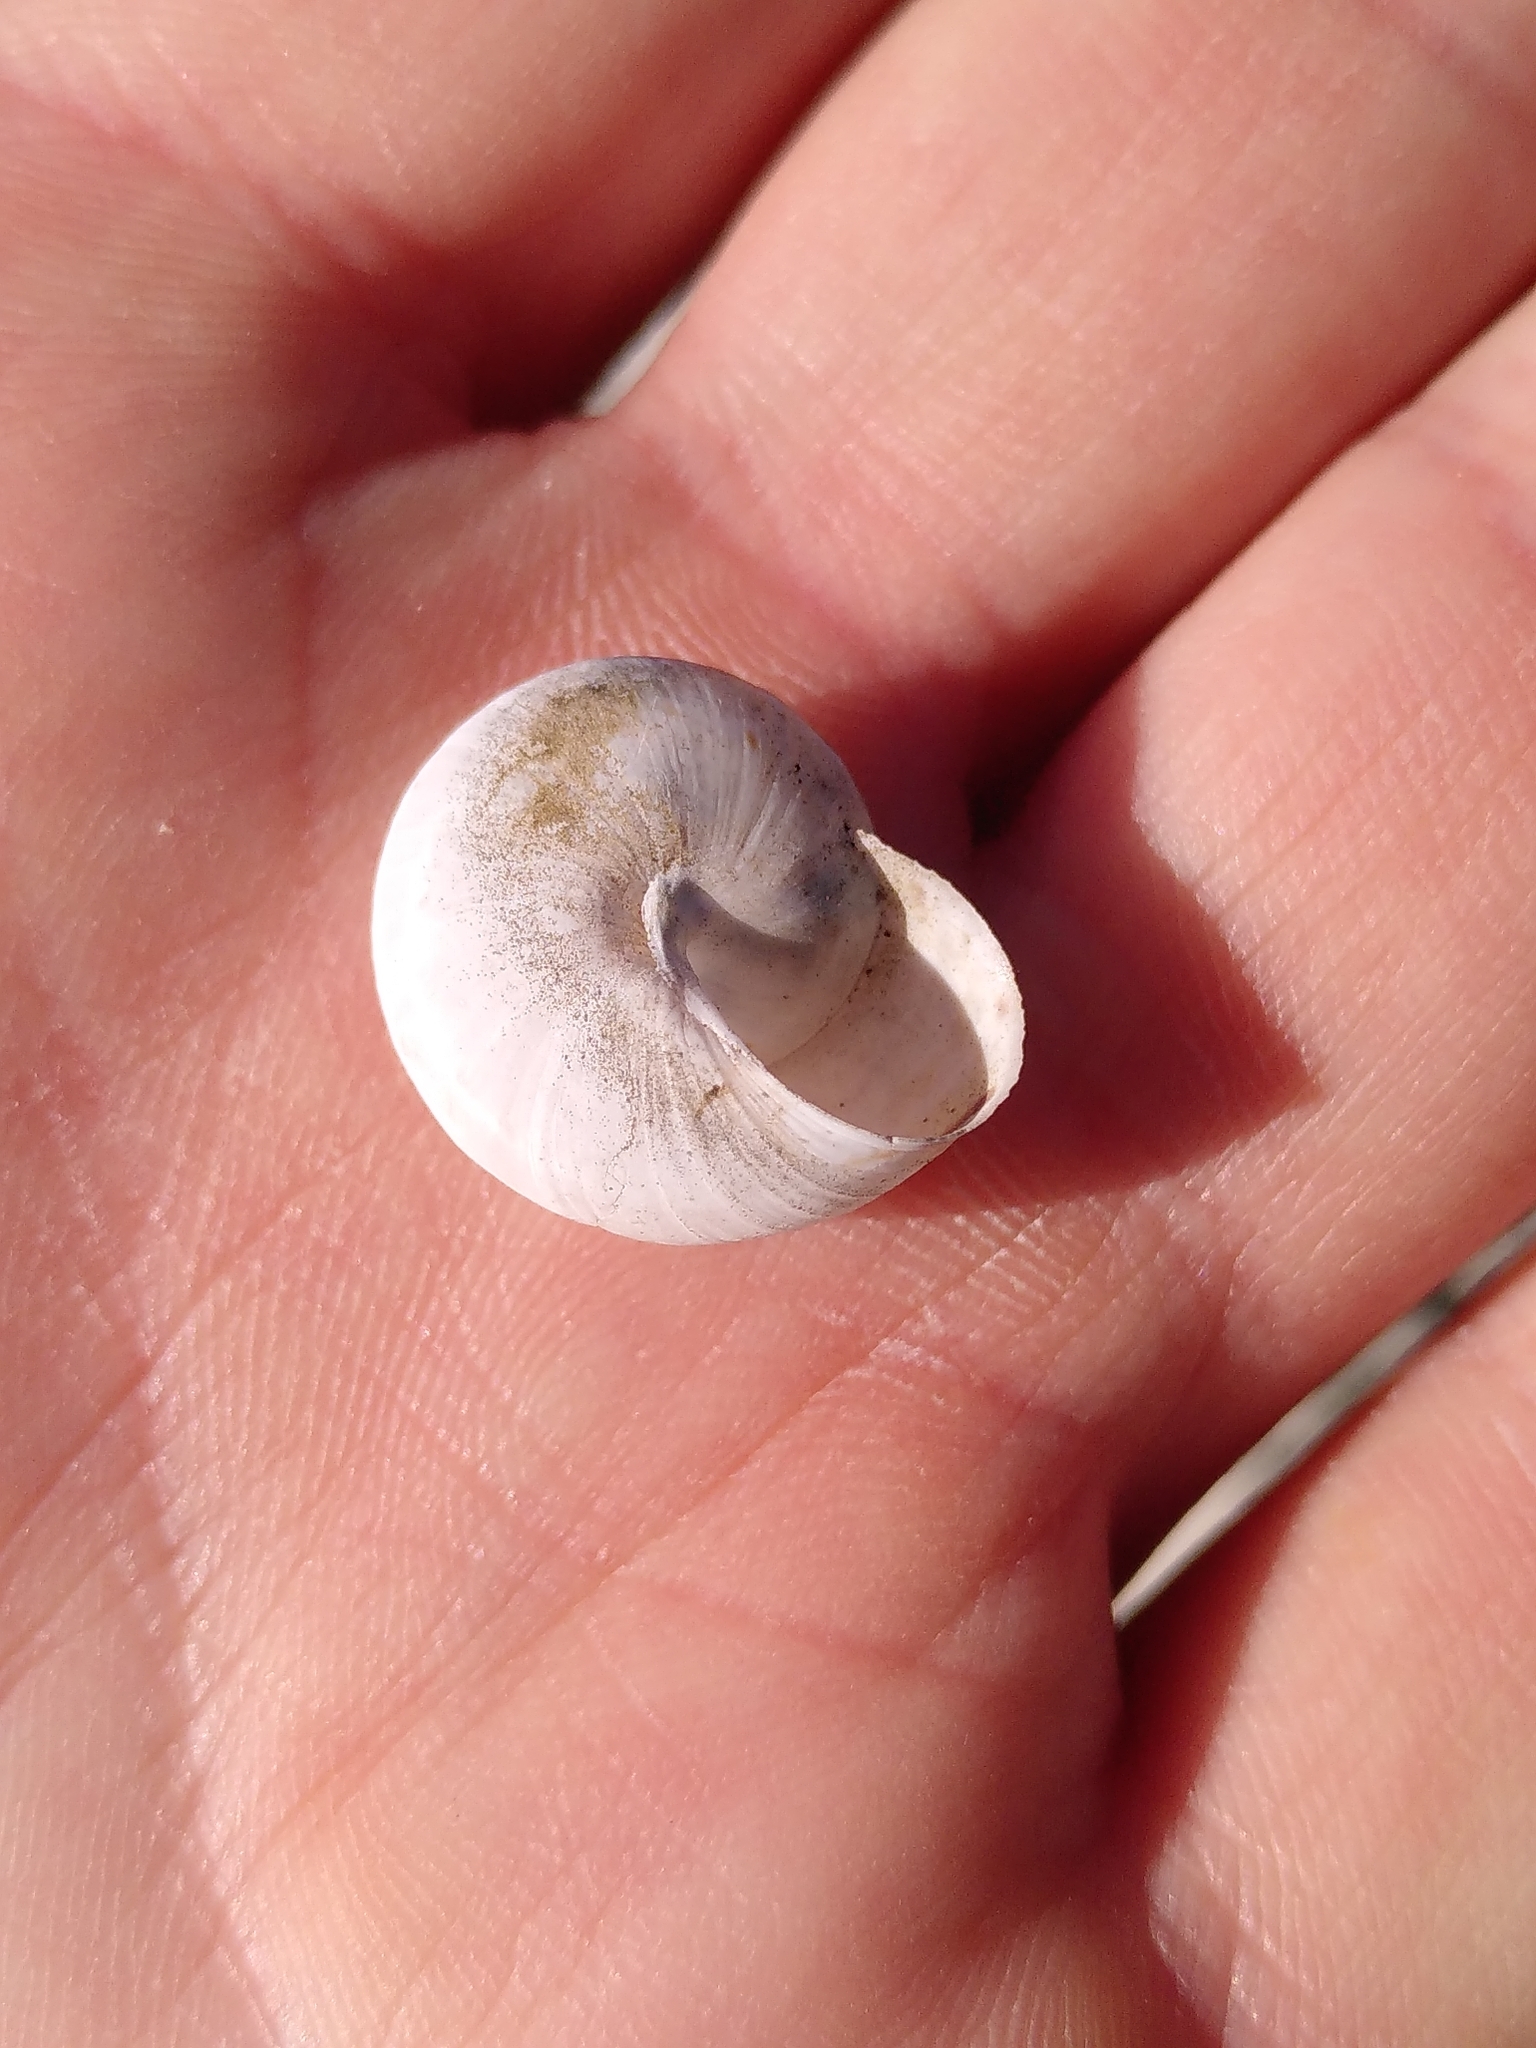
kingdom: Animalia
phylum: Mollusca
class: Gastropoda
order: Stylommatophora
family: Helicidae
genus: Pseudotachea
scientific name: Pseudotachea splendida
